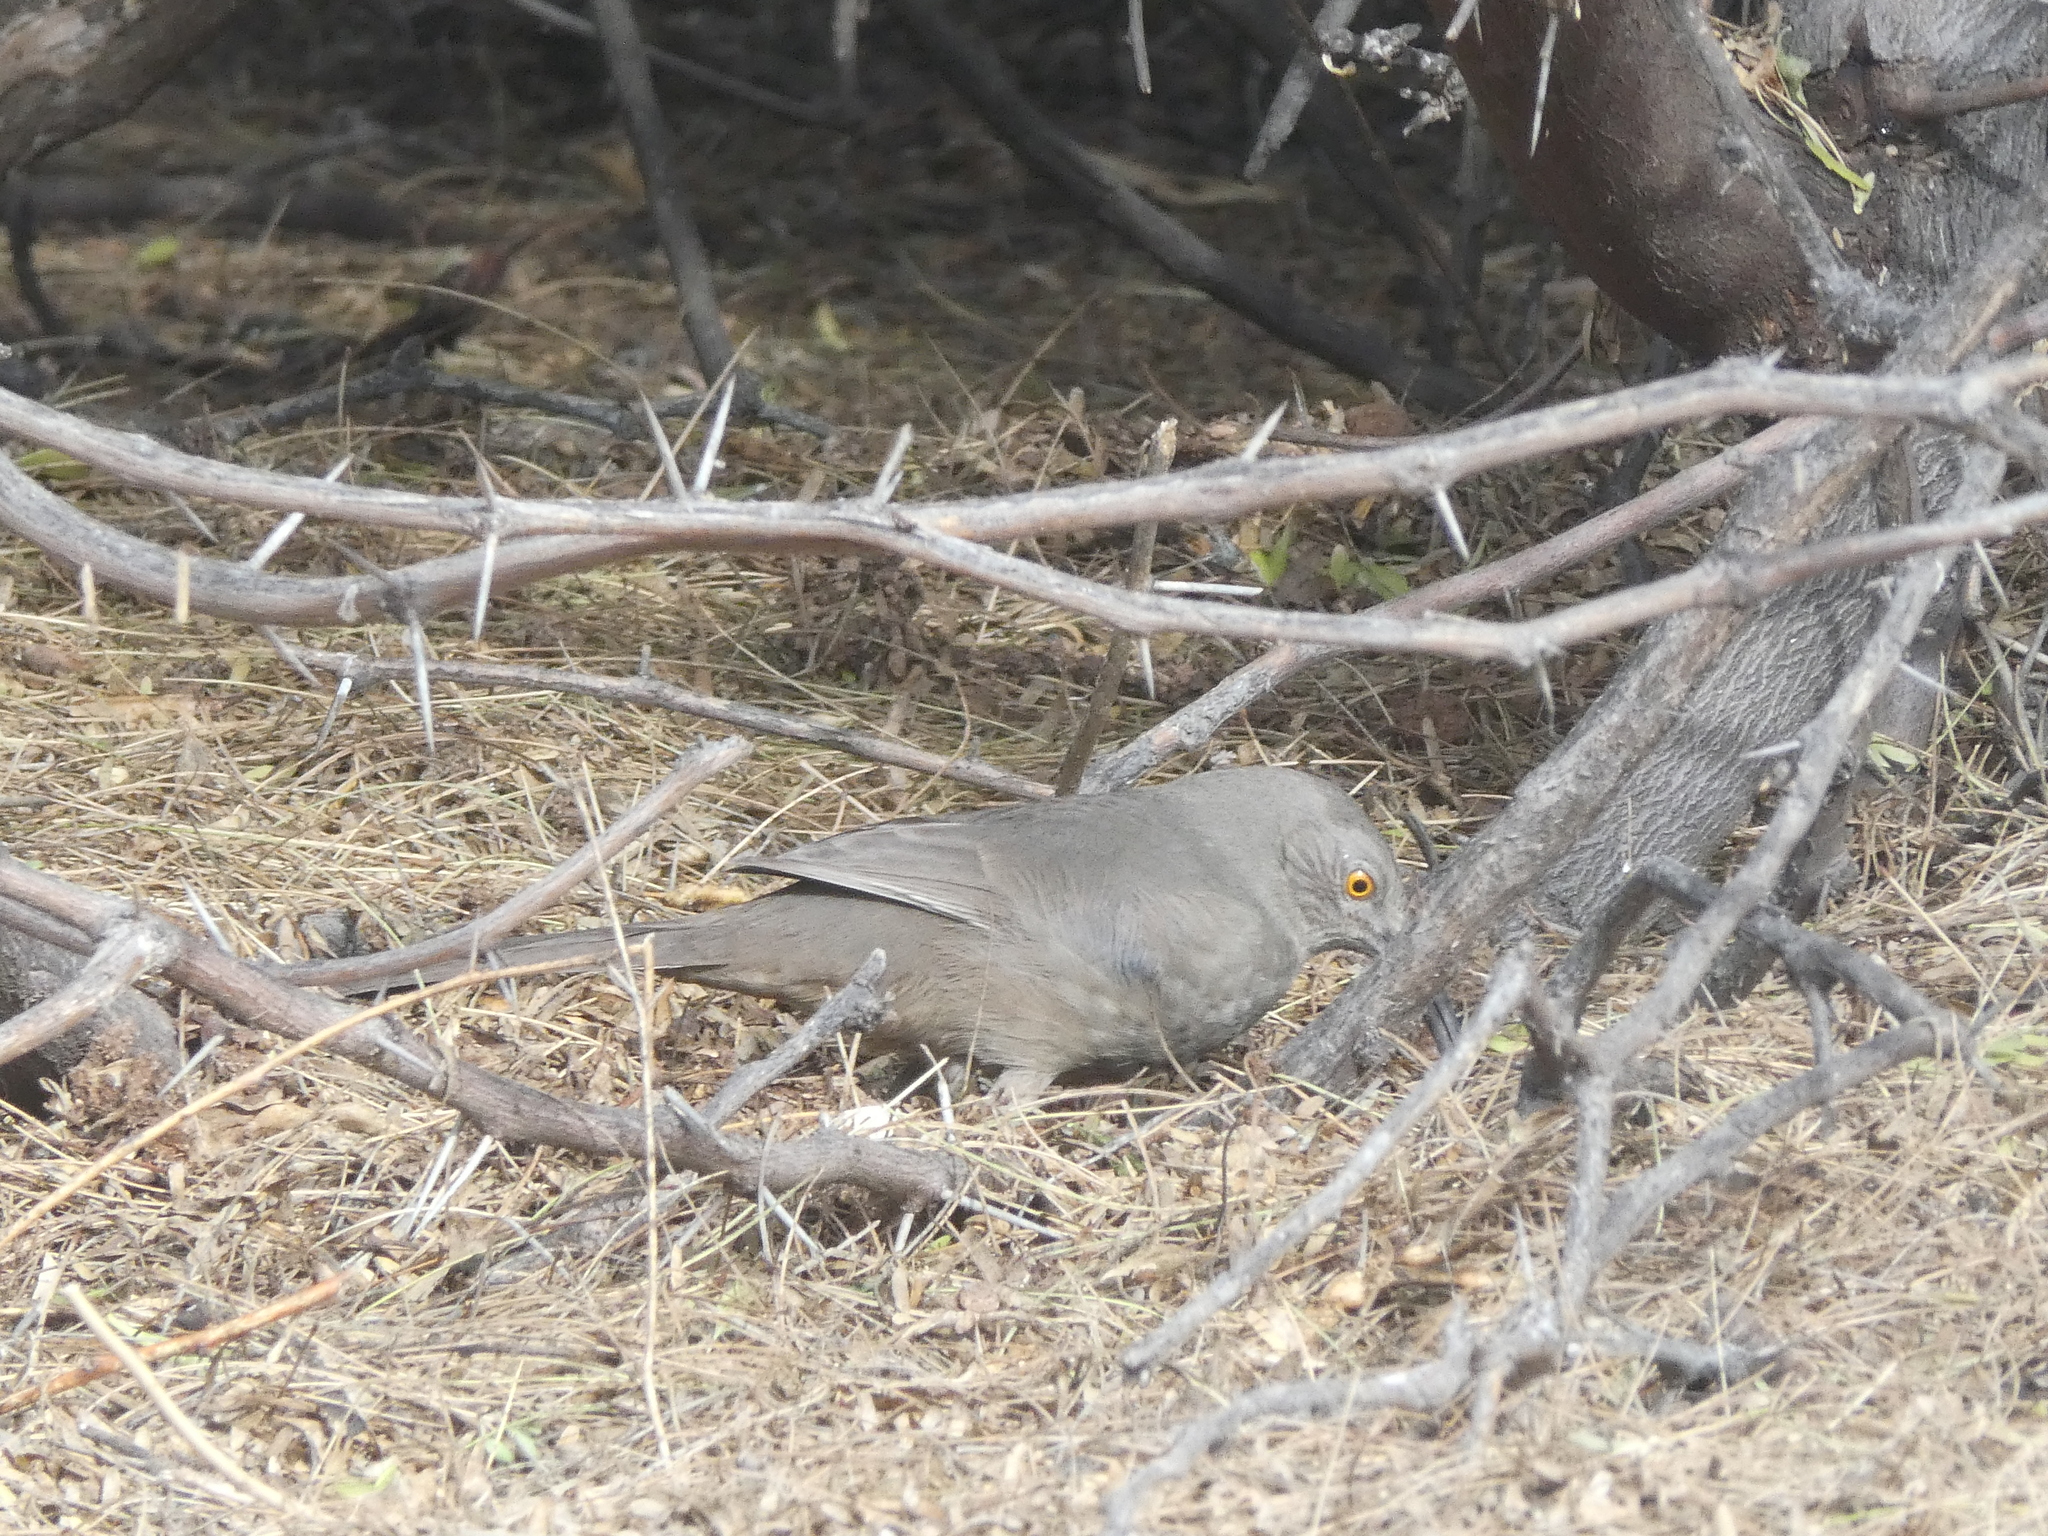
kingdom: Animalia
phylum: Chordata
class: Aves
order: Passeriformes
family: Mimidae
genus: Toxostoma
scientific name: Toxostoma curvirostre
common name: Curve-billed thrasher
